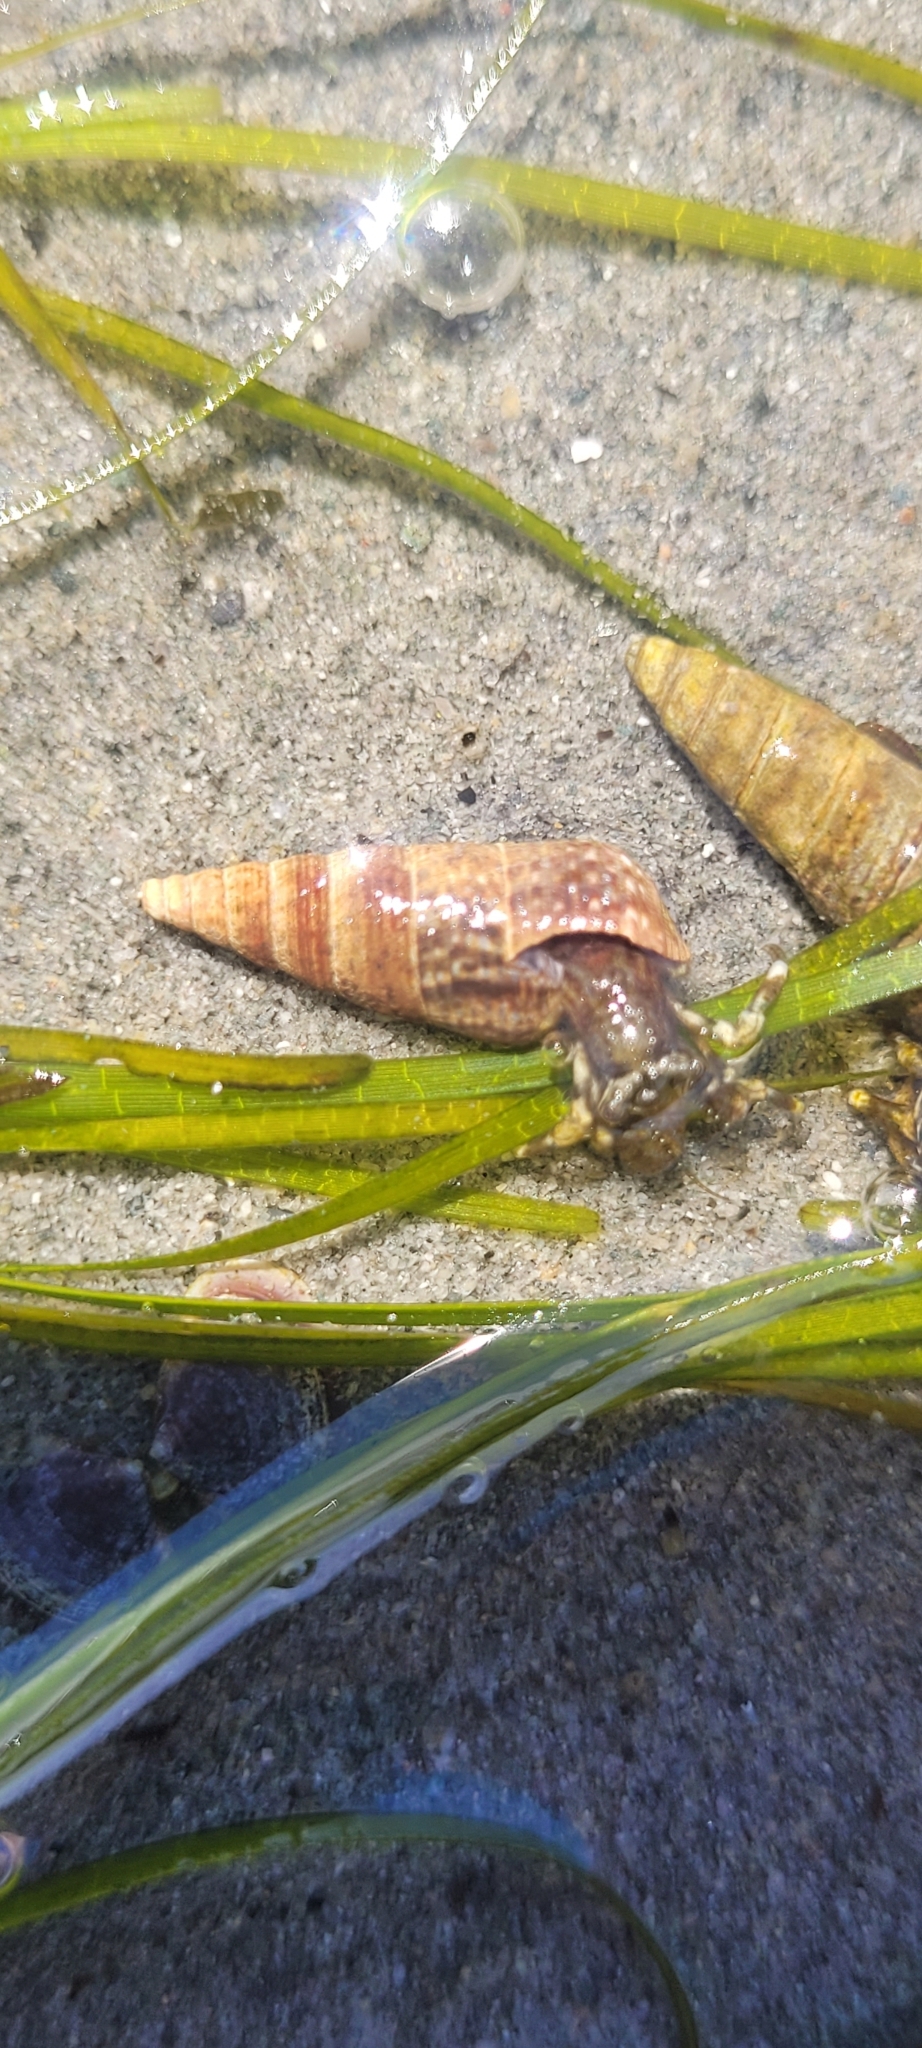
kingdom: Animalia
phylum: Mollusca
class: Gastropoda
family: Batillariidae
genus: Batillaria
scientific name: Batillaria attramentaria
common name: Japanese false cerith
